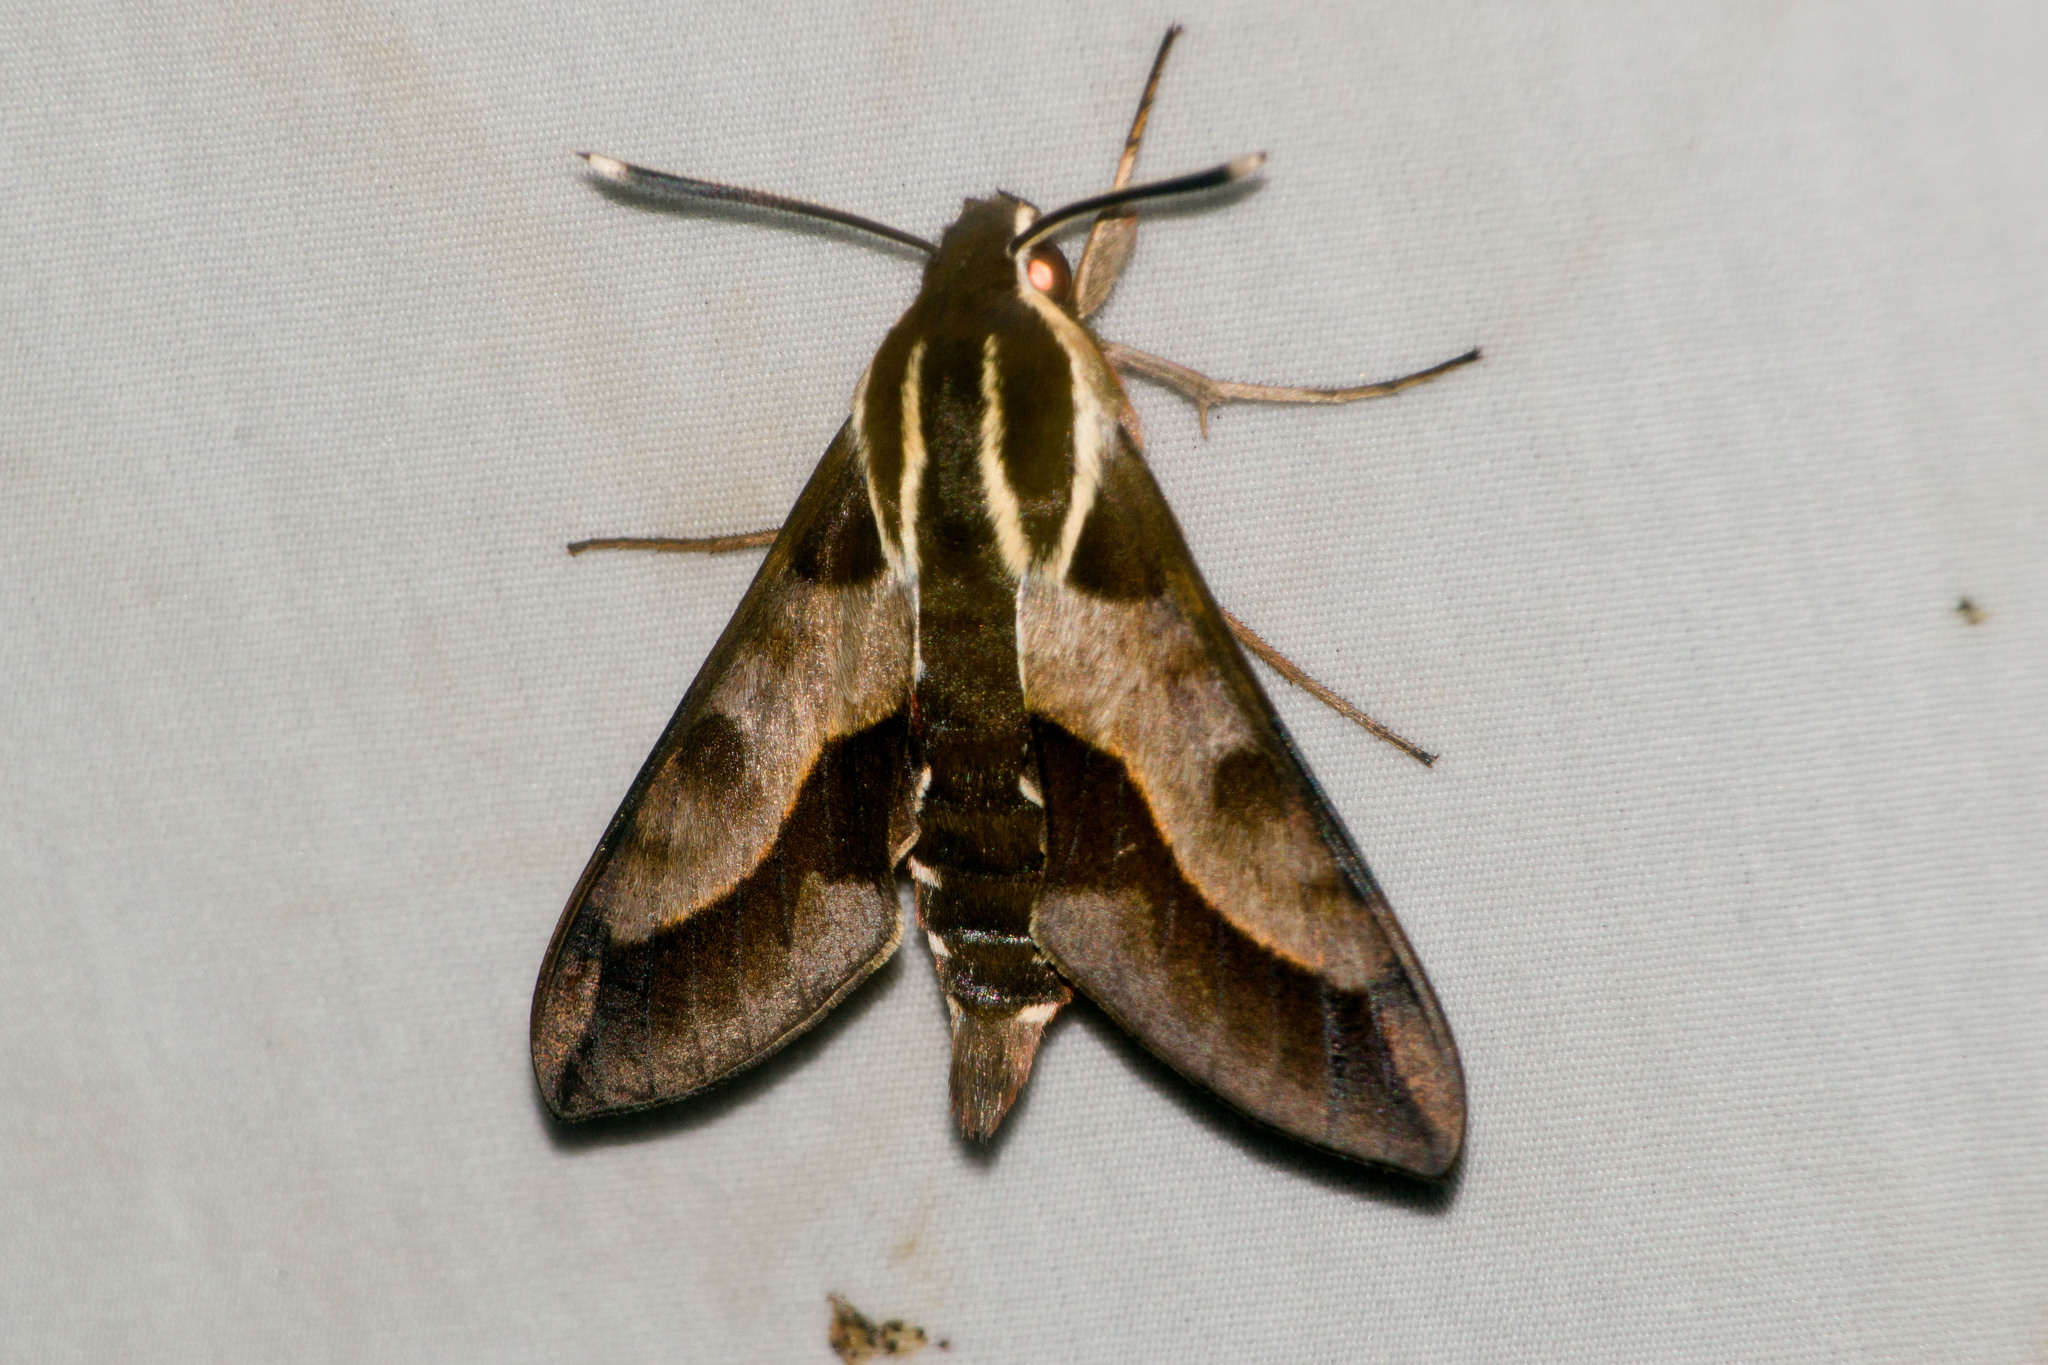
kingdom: Animalia
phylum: Arthropoda
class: Insecta
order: Lepidoptera
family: Sphingidae
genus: Hyles
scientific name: Hyles calida
